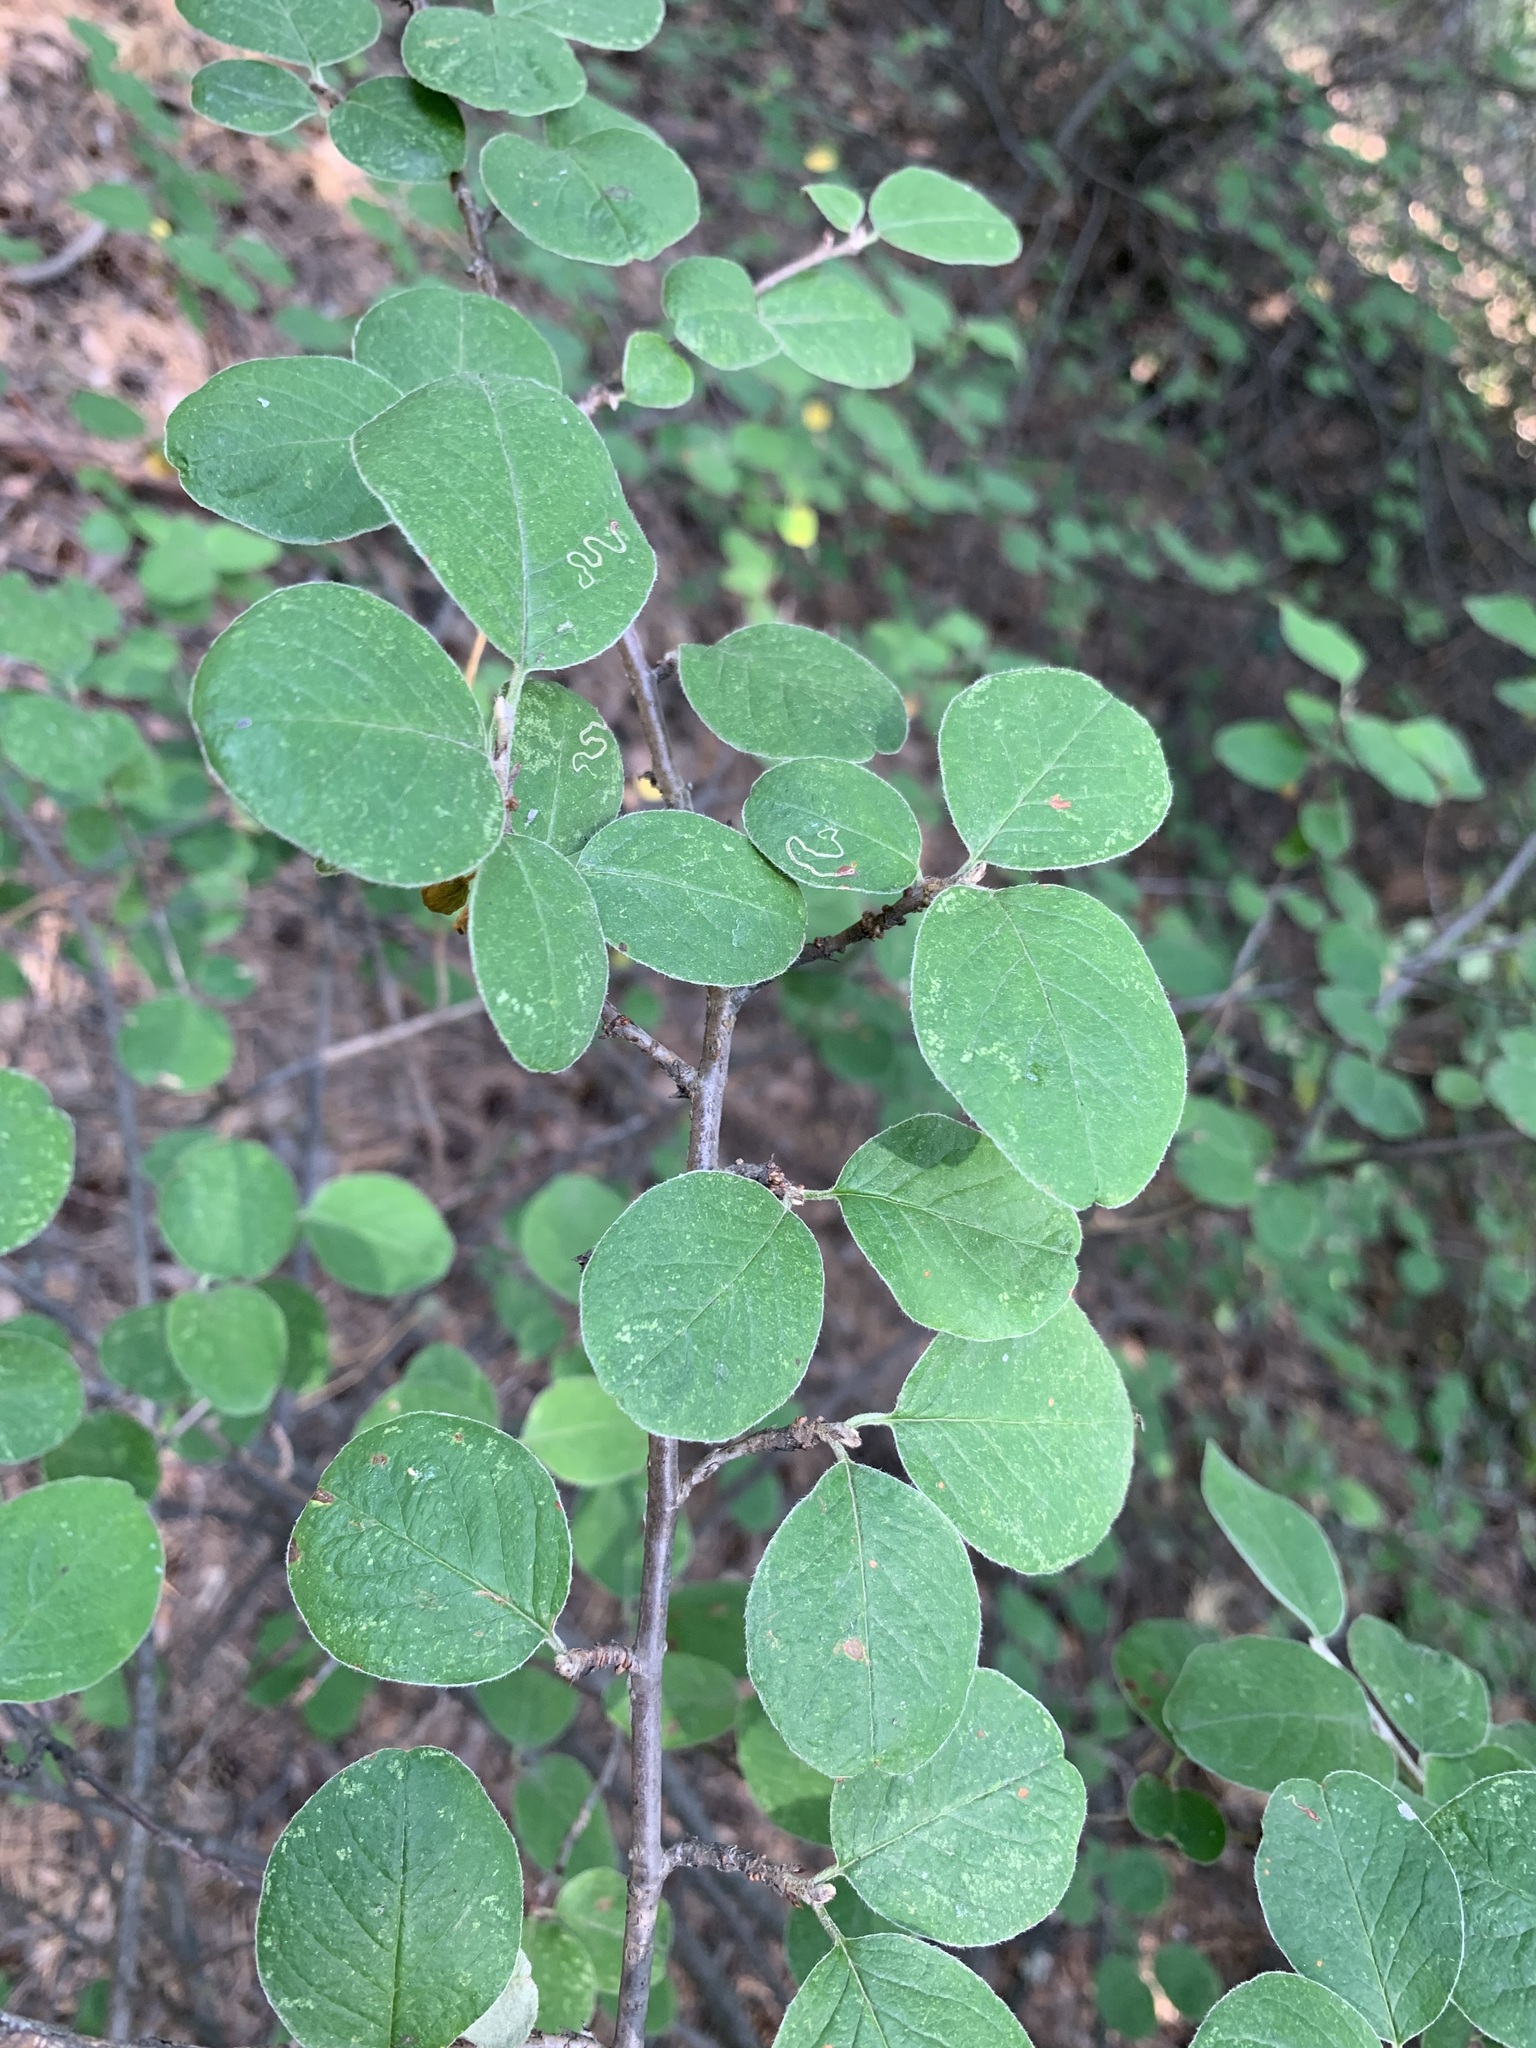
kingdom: Plantae
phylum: Tracheophyta
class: Magnoliopsida
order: Rosales
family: Rosaceae
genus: Cotoneaster
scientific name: Cotoneaster melanocarpus
